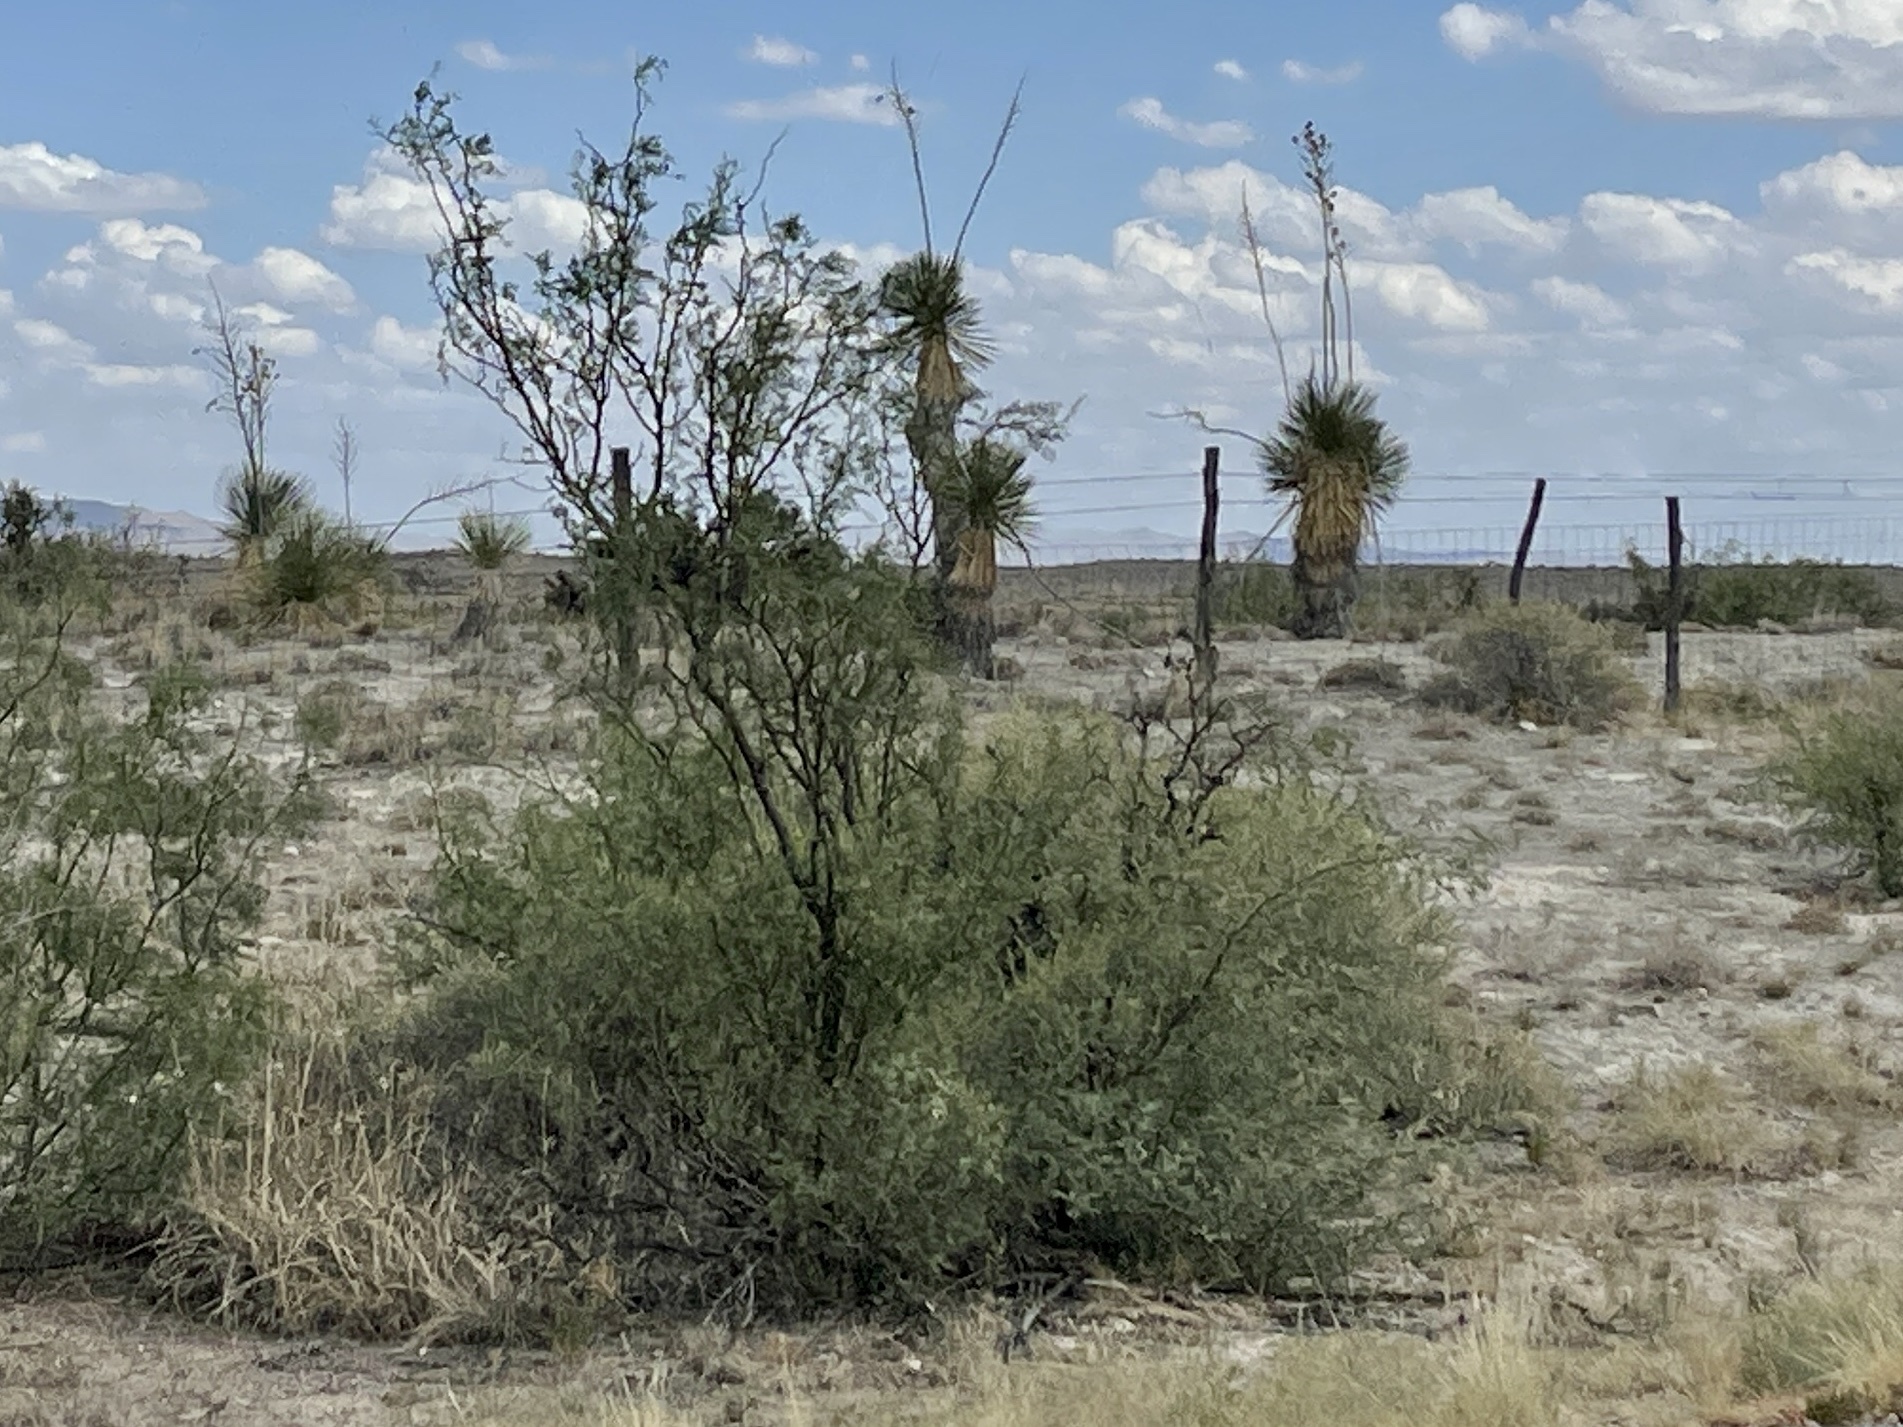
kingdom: Plantae
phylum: Tracheophyta
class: Magnoliopsida
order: Fabales
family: Fabaceae
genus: Prosopis
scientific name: Prosopis glandulosa
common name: Honey mesquite
